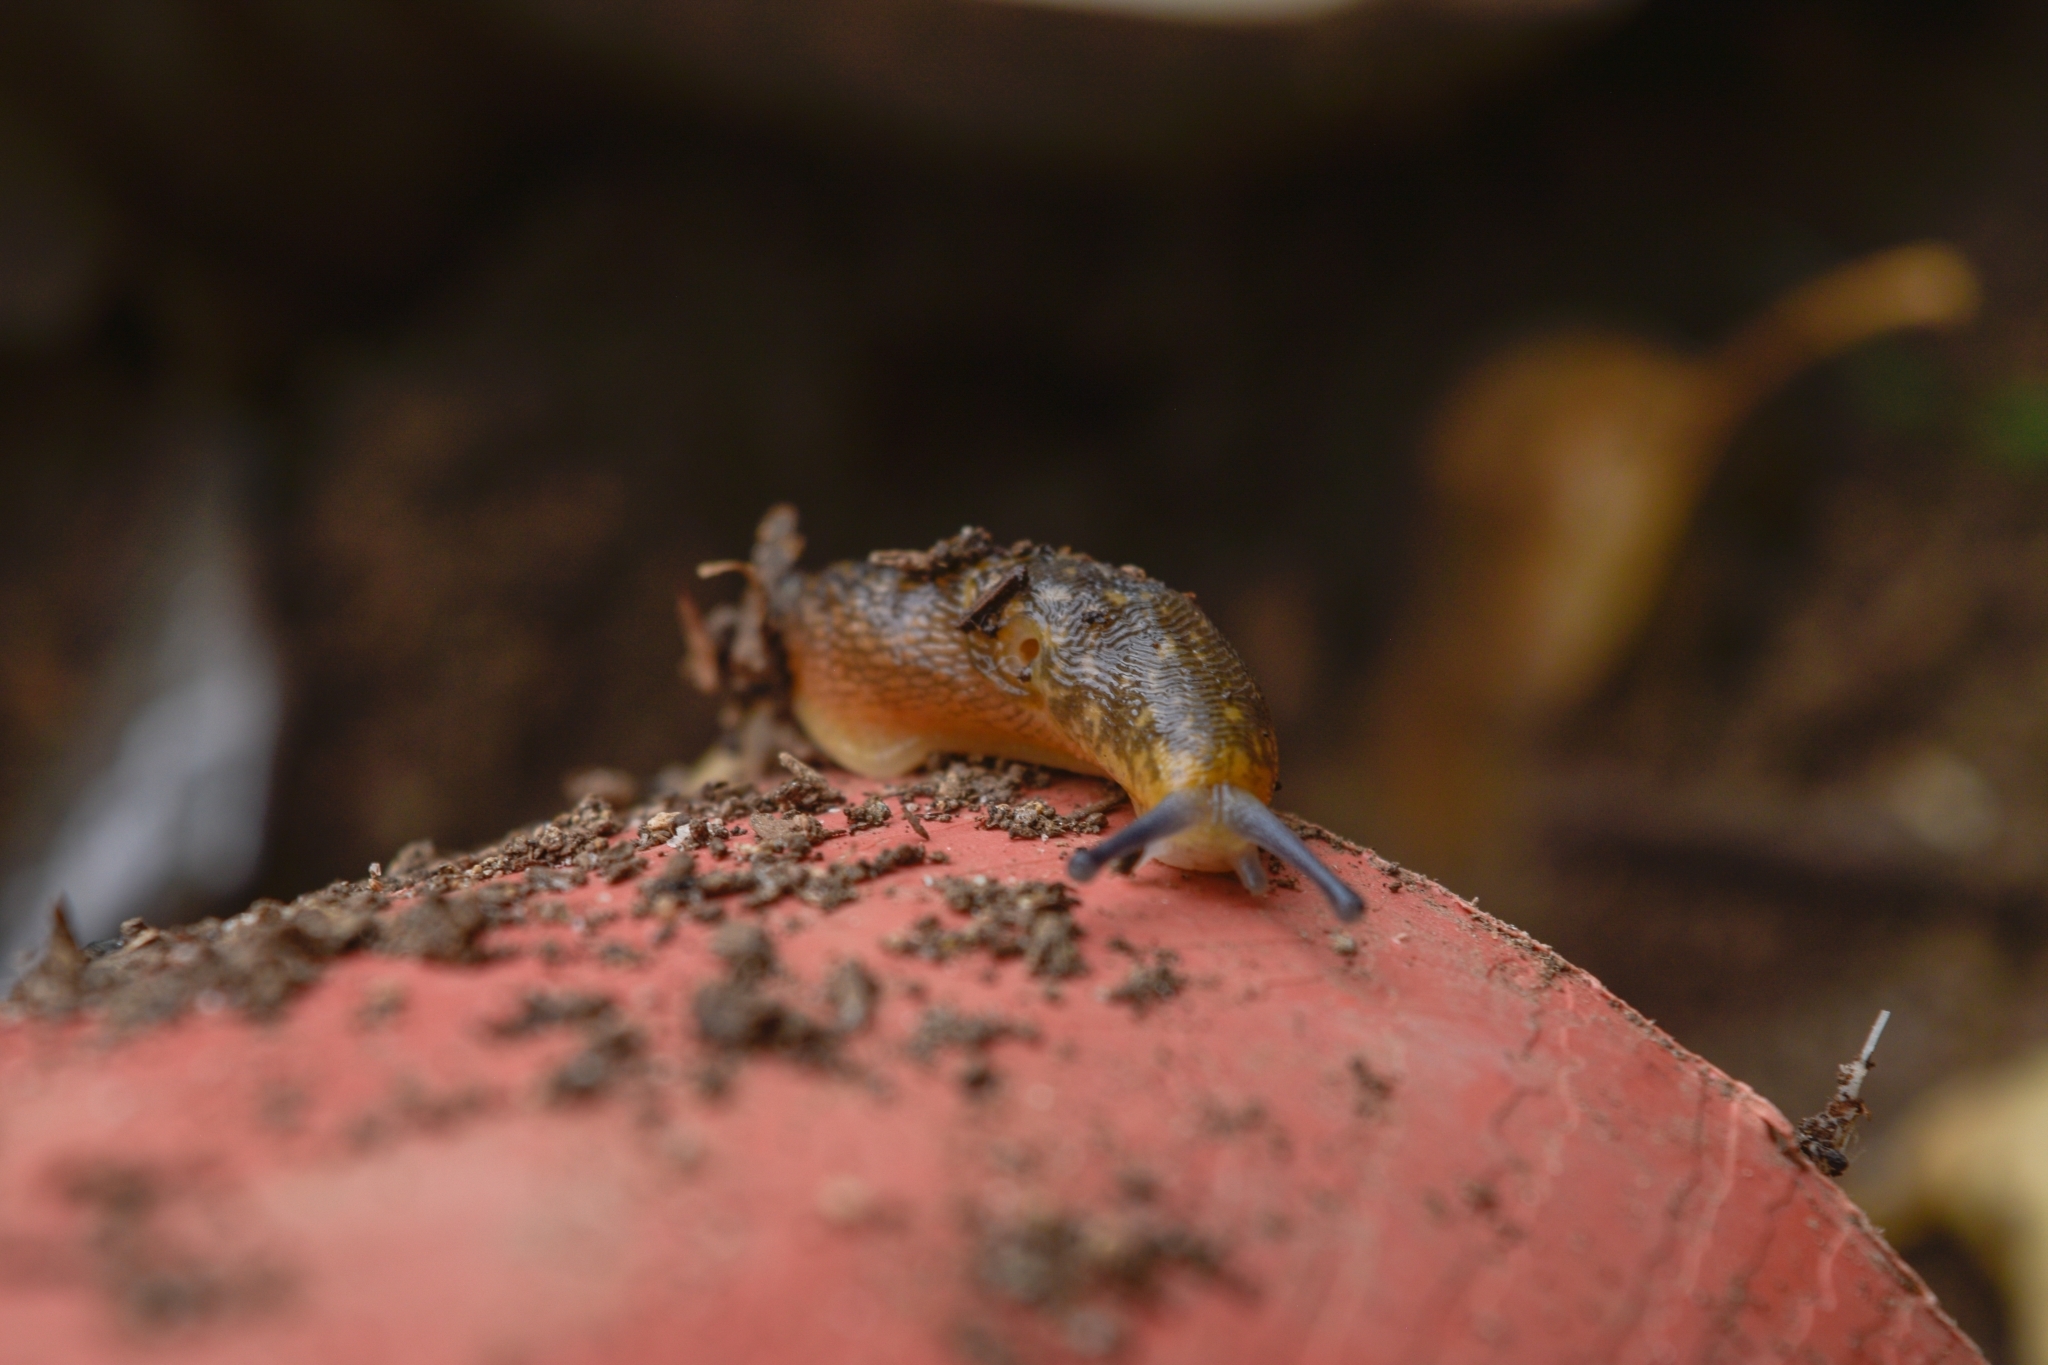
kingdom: Animalia
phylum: Mollusca
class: Gastropoda
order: Stylommatophora
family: Limacidae
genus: Limacus
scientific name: Limacus flavus
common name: Yellow gardenslug
